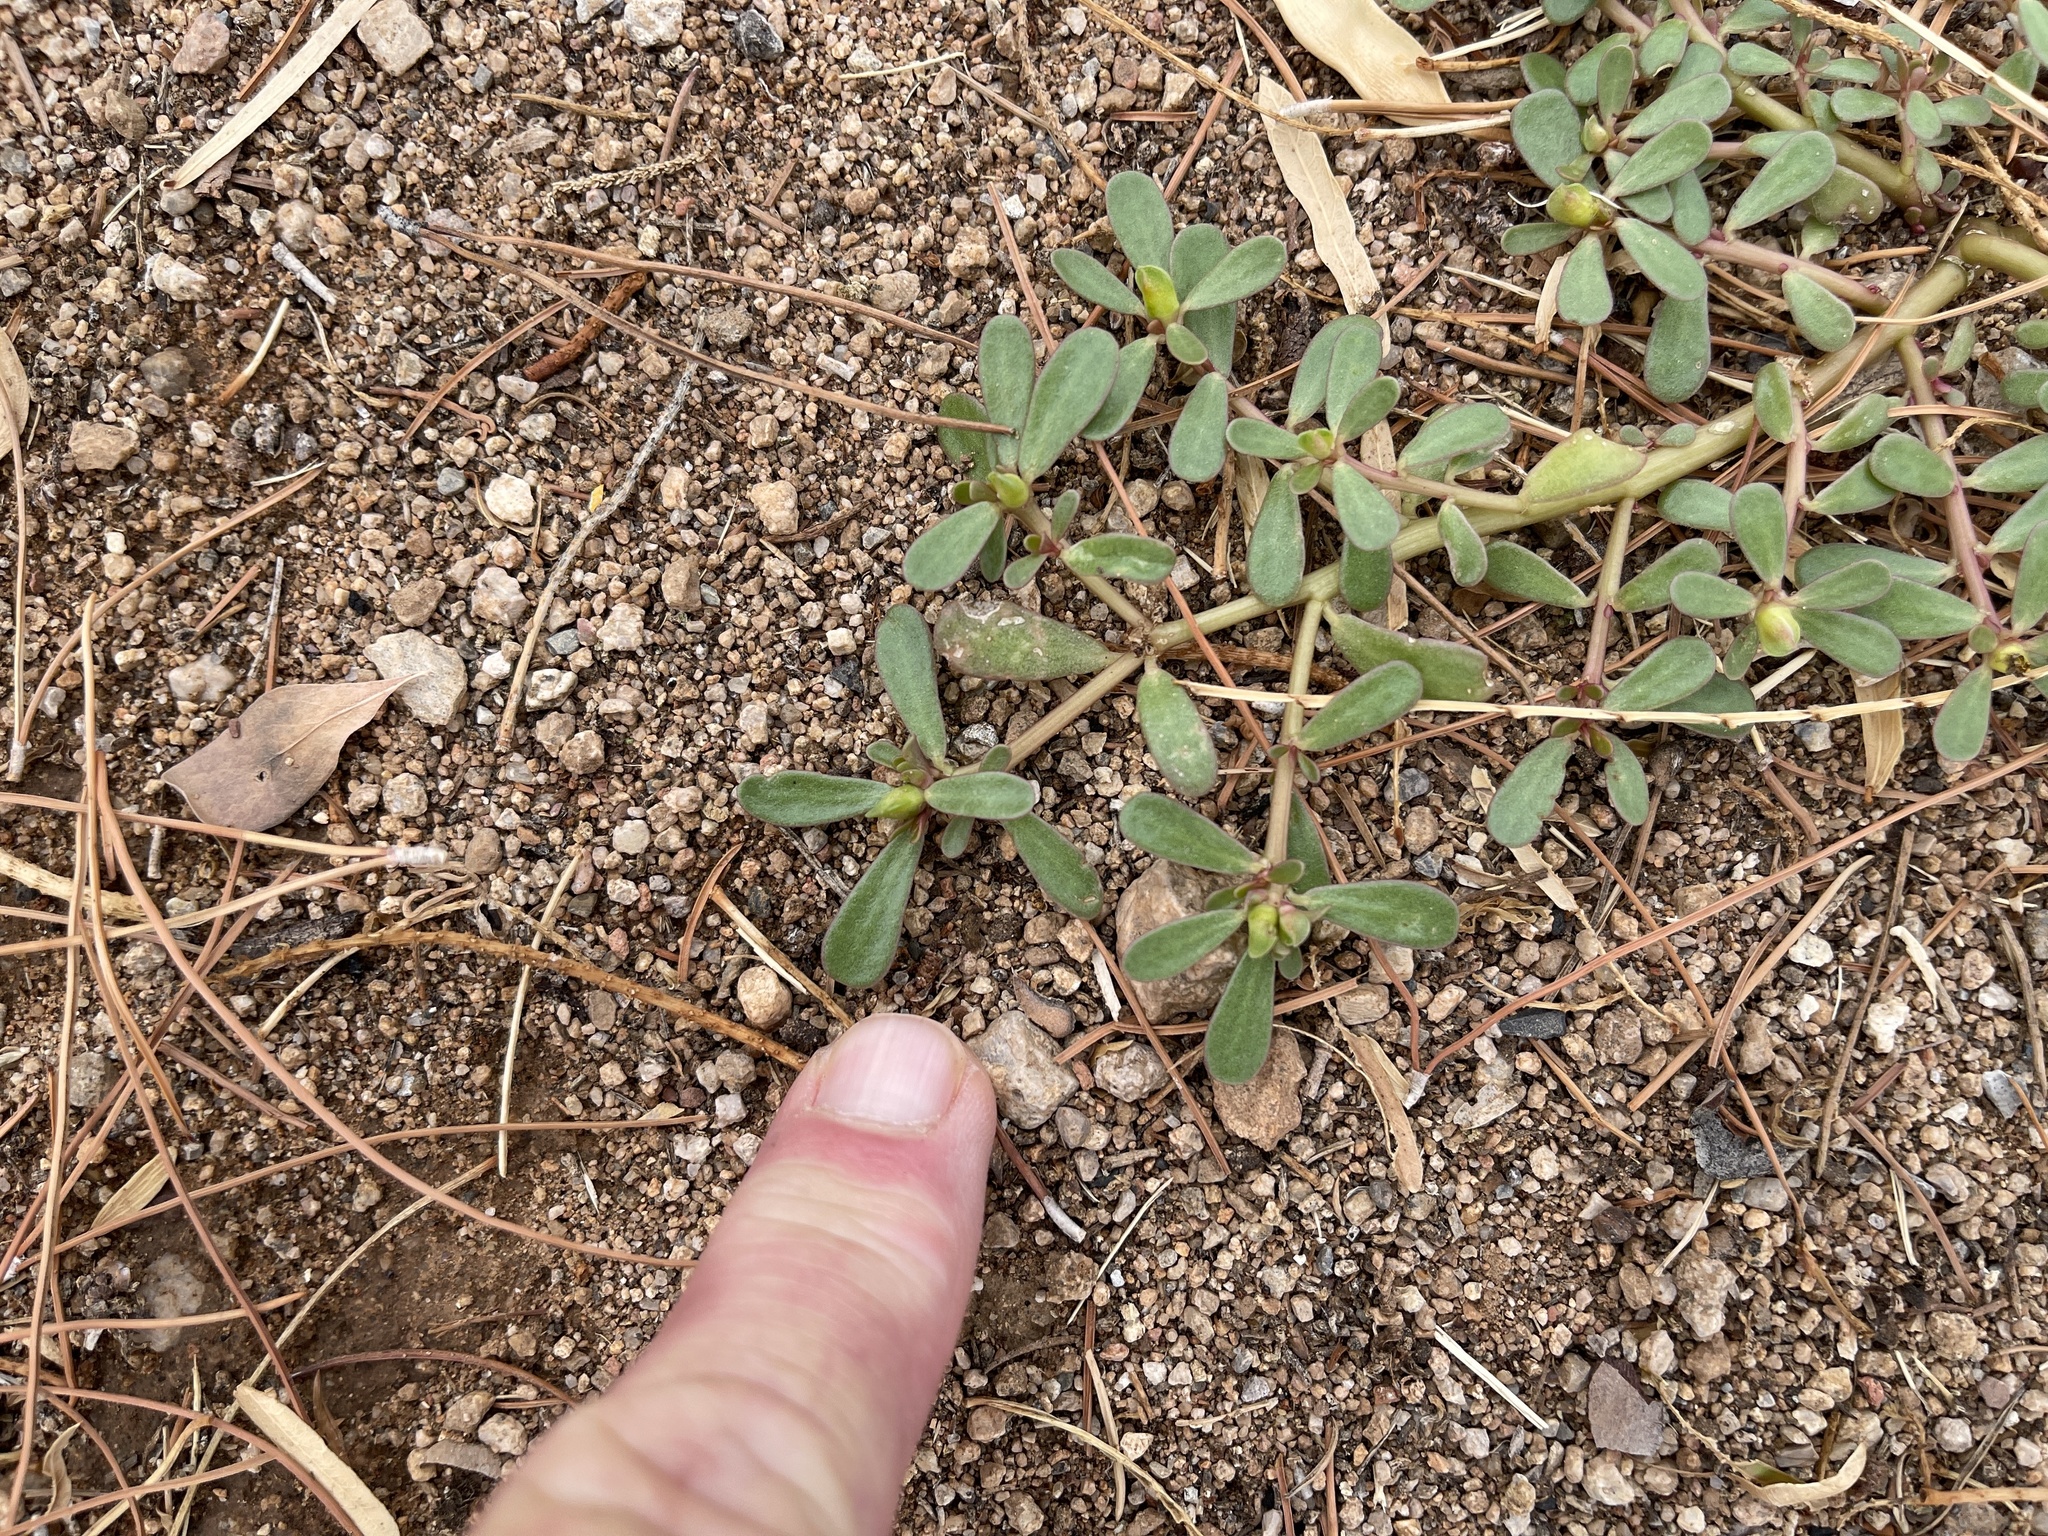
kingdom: Plantae
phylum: Tracheophyta
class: Magnoliopsida
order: Caryophyllales
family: Portulacaceae
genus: Portulaca
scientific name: Portulaca oleracea
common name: Common purslane
